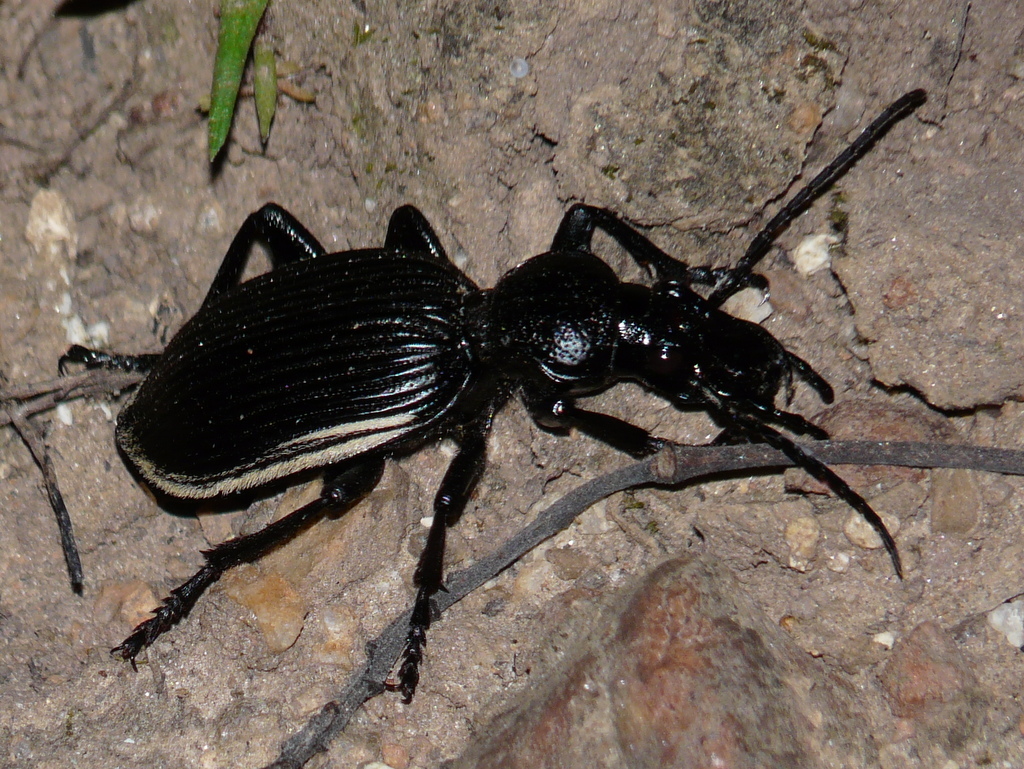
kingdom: Animalia
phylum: Arthropoda
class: Insecta
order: Coleoptera
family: Carabidae
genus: Anthia
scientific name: Anthia fornasinii
